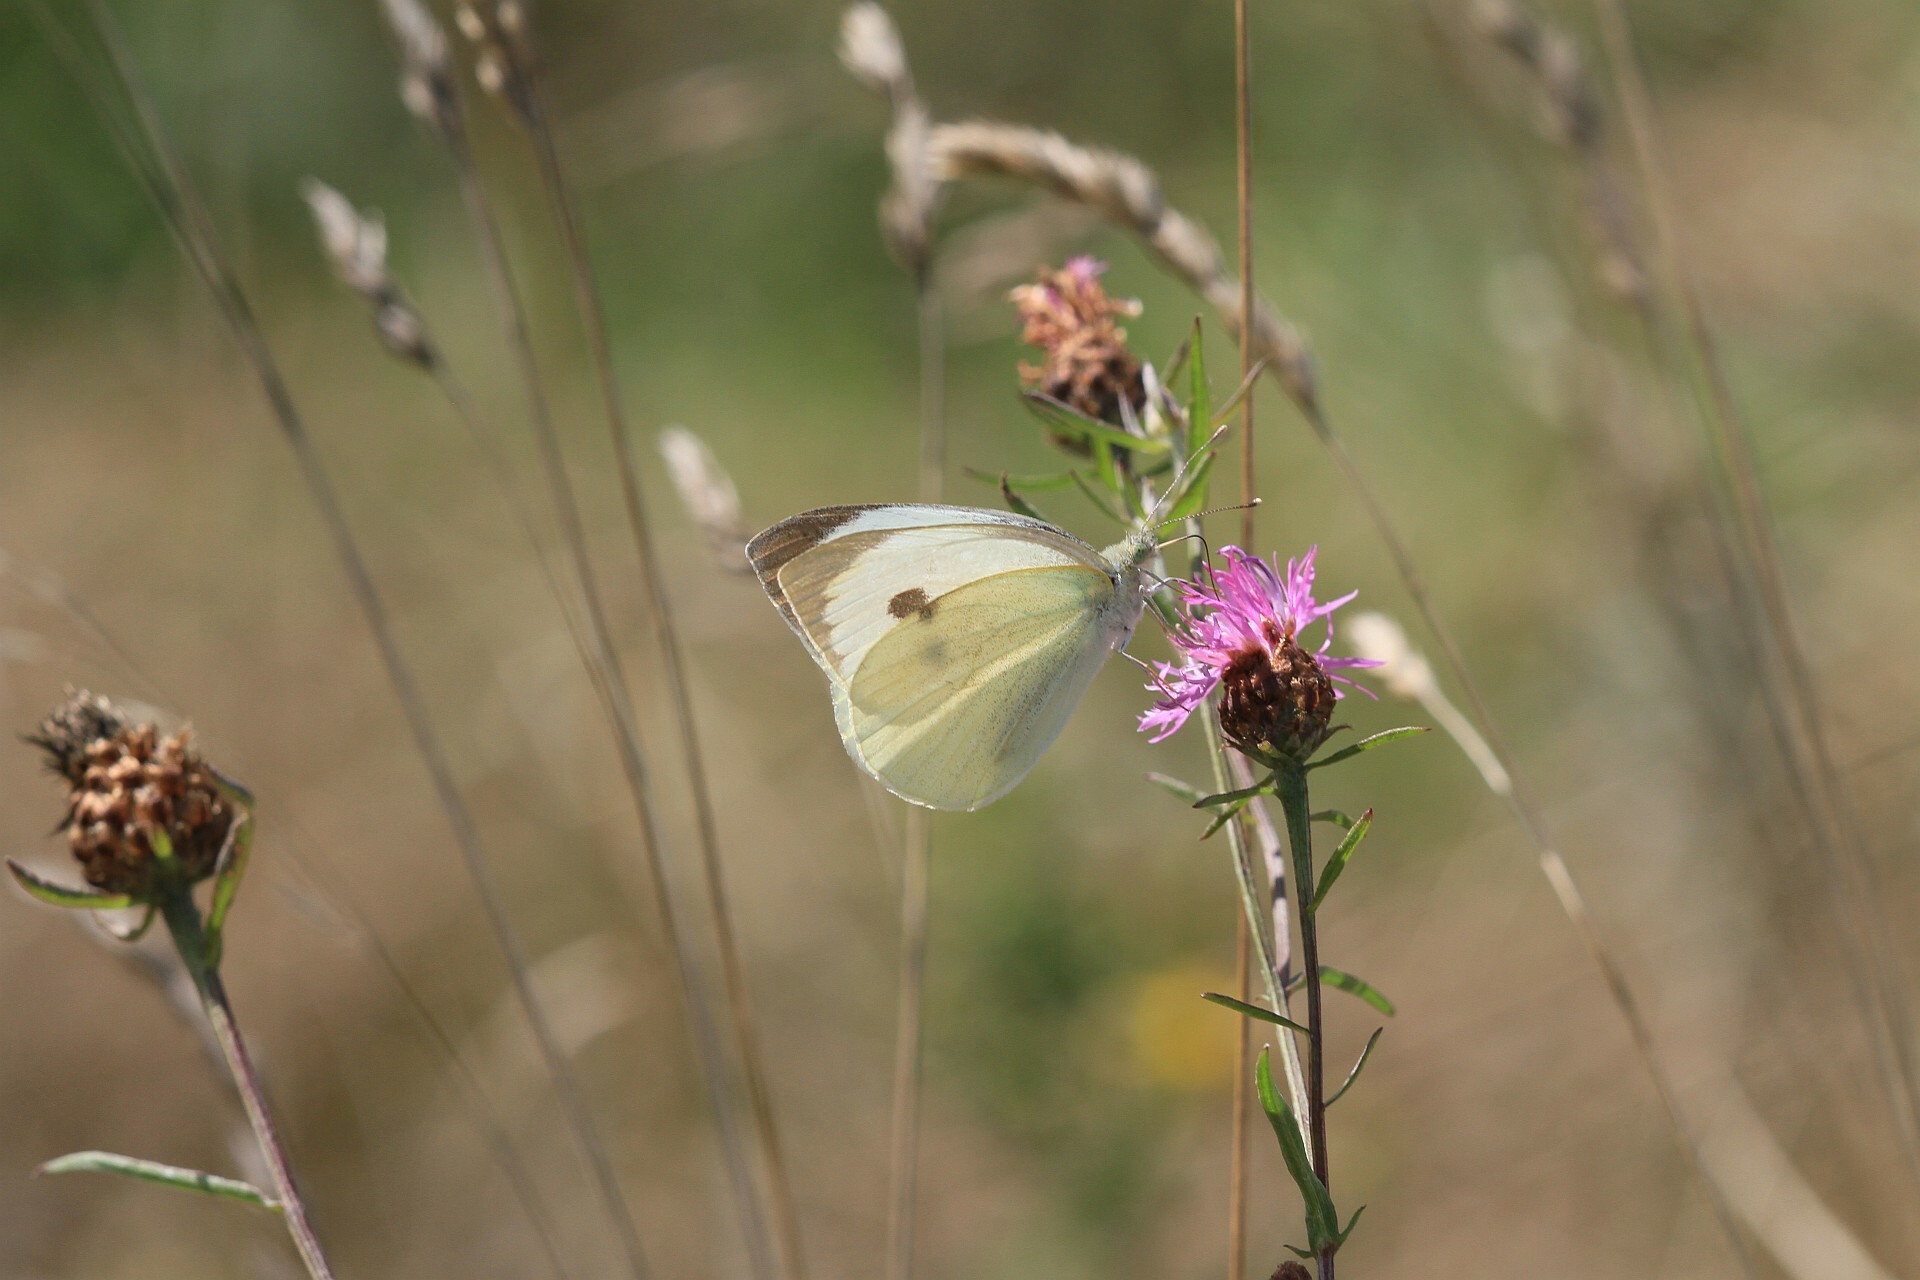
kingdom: Animalia
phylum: Arthropoda
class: Insecta
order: Lepidoptera
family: Pieridae
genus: Pieris
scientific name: Pieris brassicae
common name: Large white
